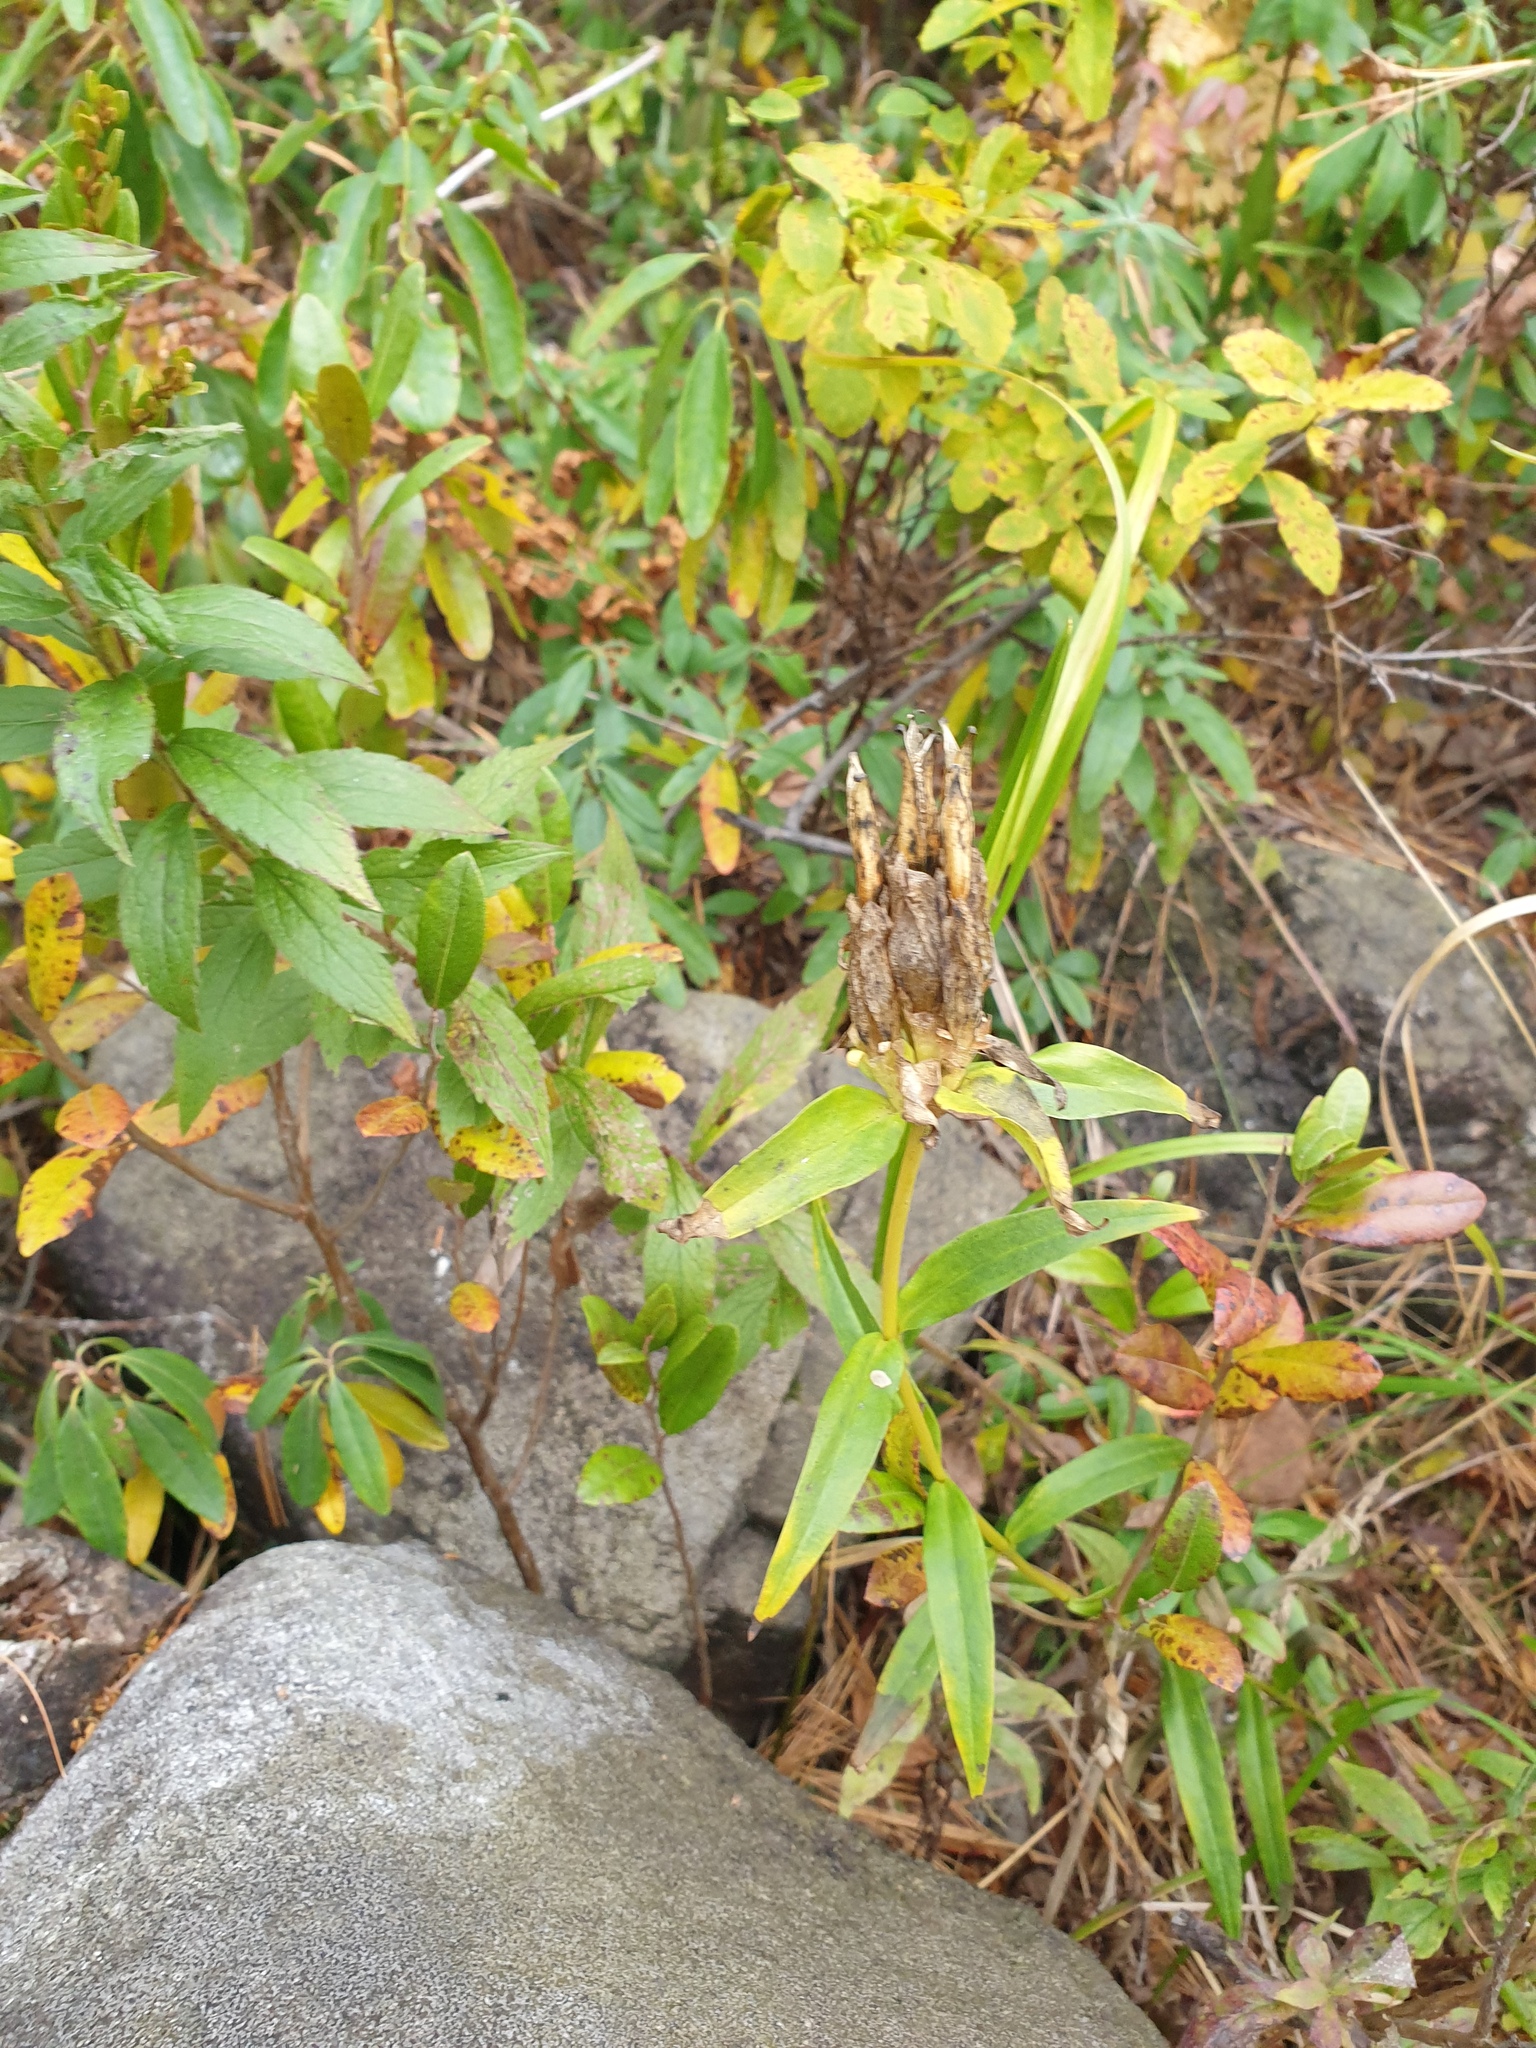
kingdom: Plantae
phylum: Tracheophyta
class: Magnoliopsida
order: Gentianales
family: Gentianaceae
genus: Gentiana
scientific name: Gentiana linearis
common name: Bastard gentian
